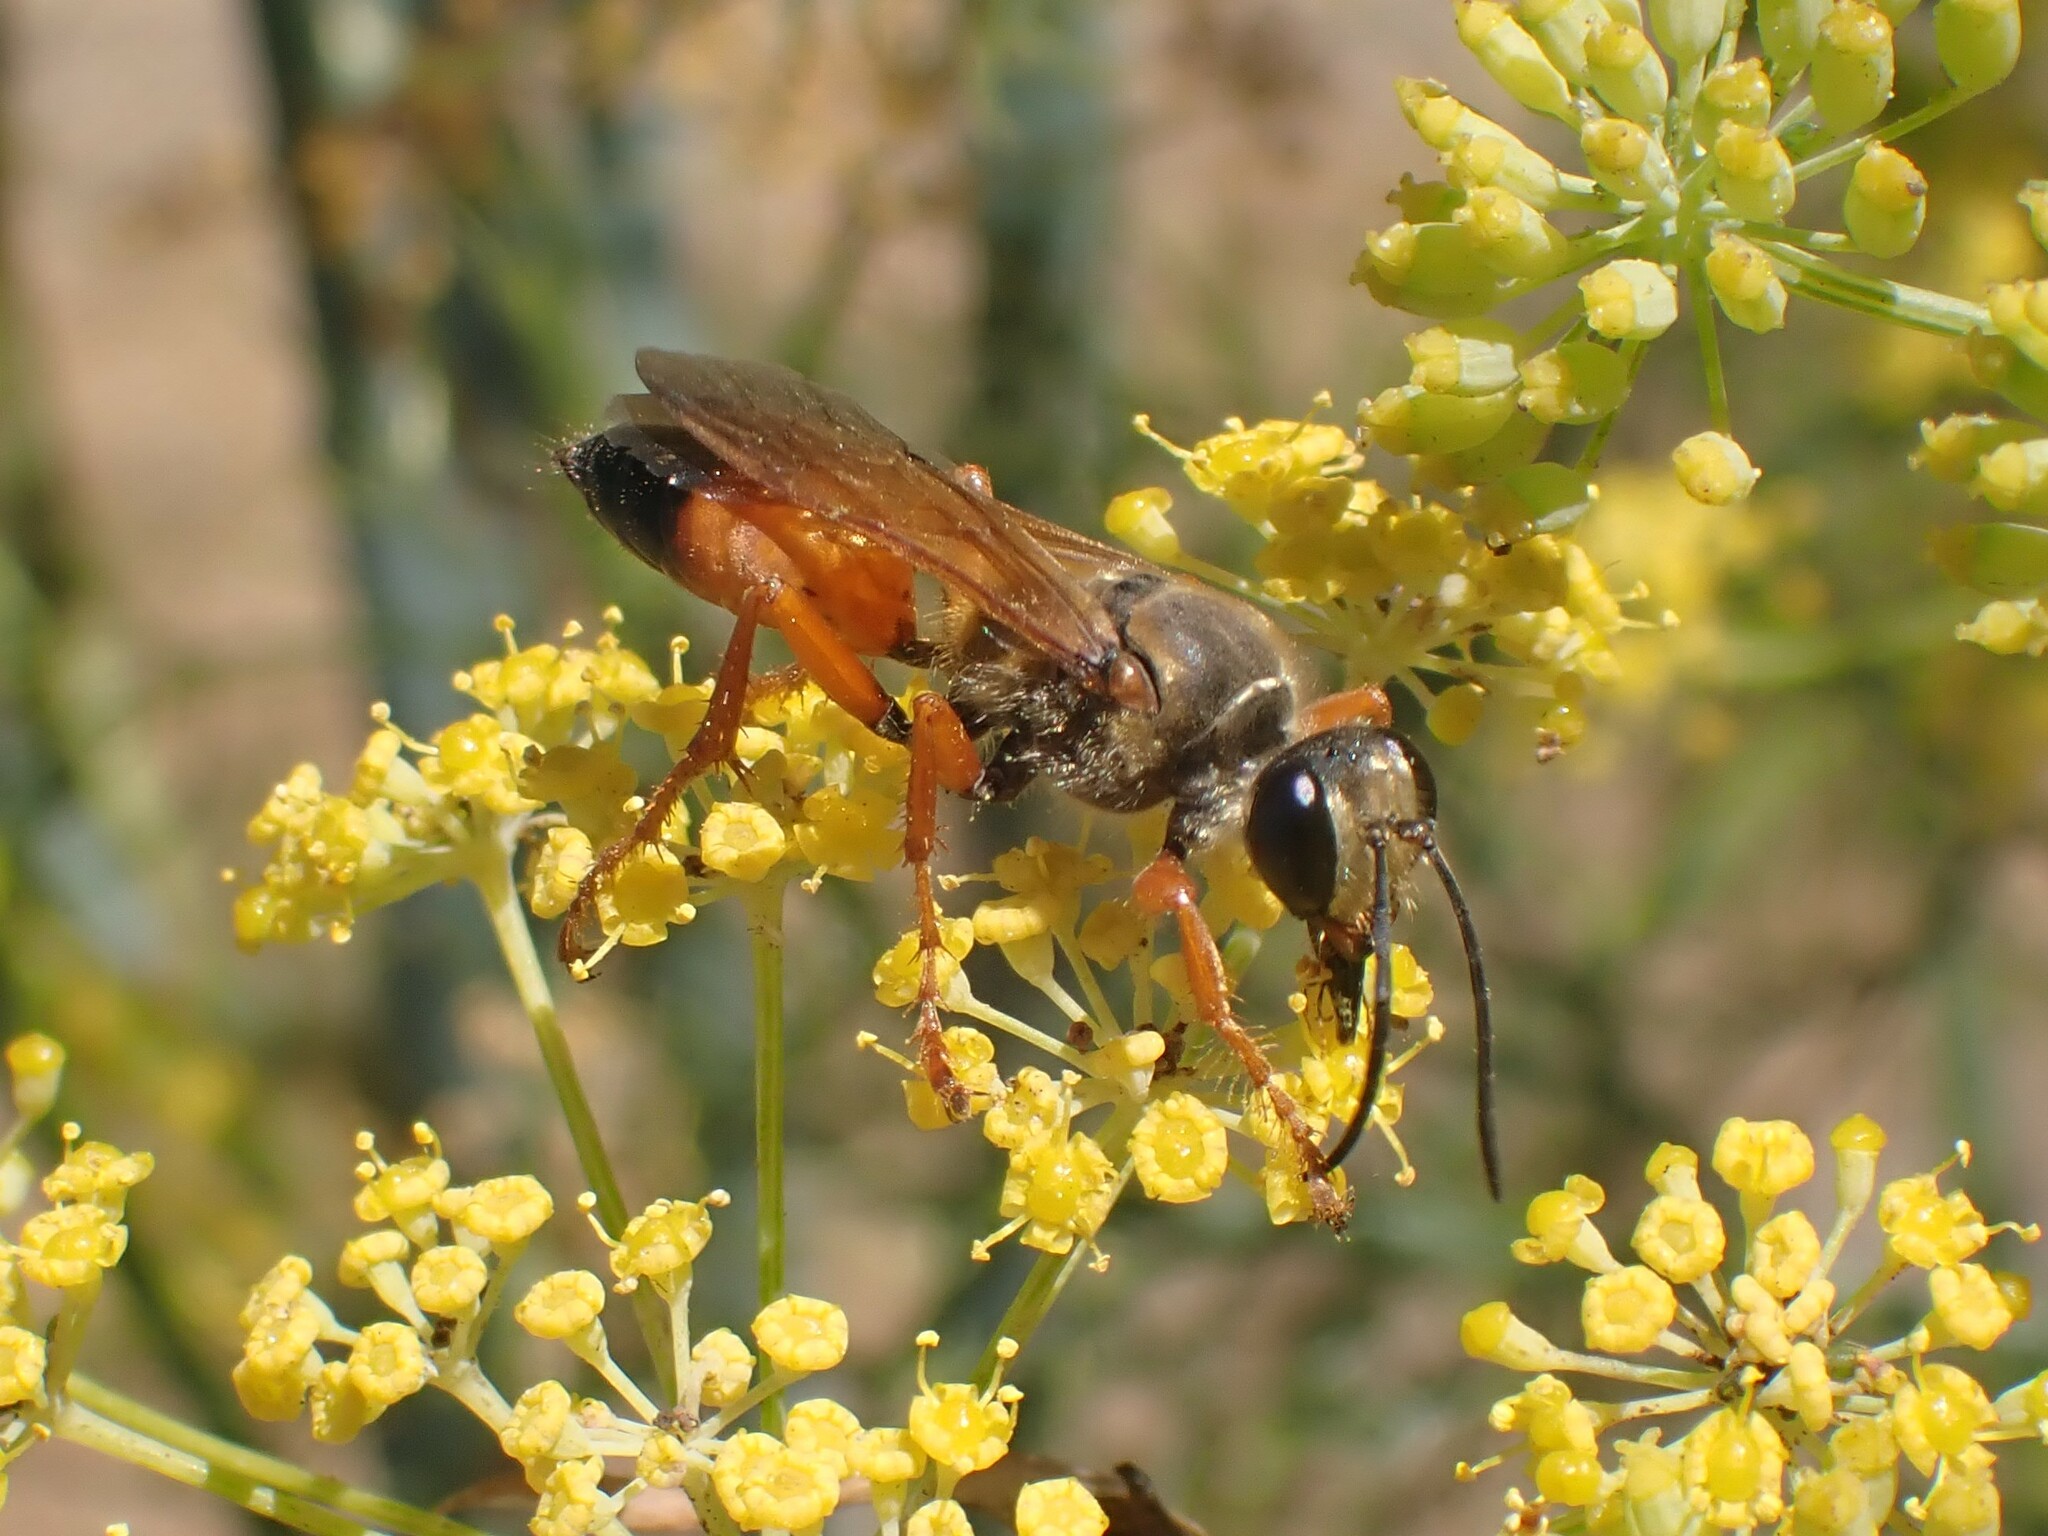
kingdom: Animalia
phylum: Arthropoda
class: Insecta
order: Hymenoptera
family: Sphecidae
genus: Sphex
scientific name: Sphex ichneumoneus
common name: Great golden digger wasp
